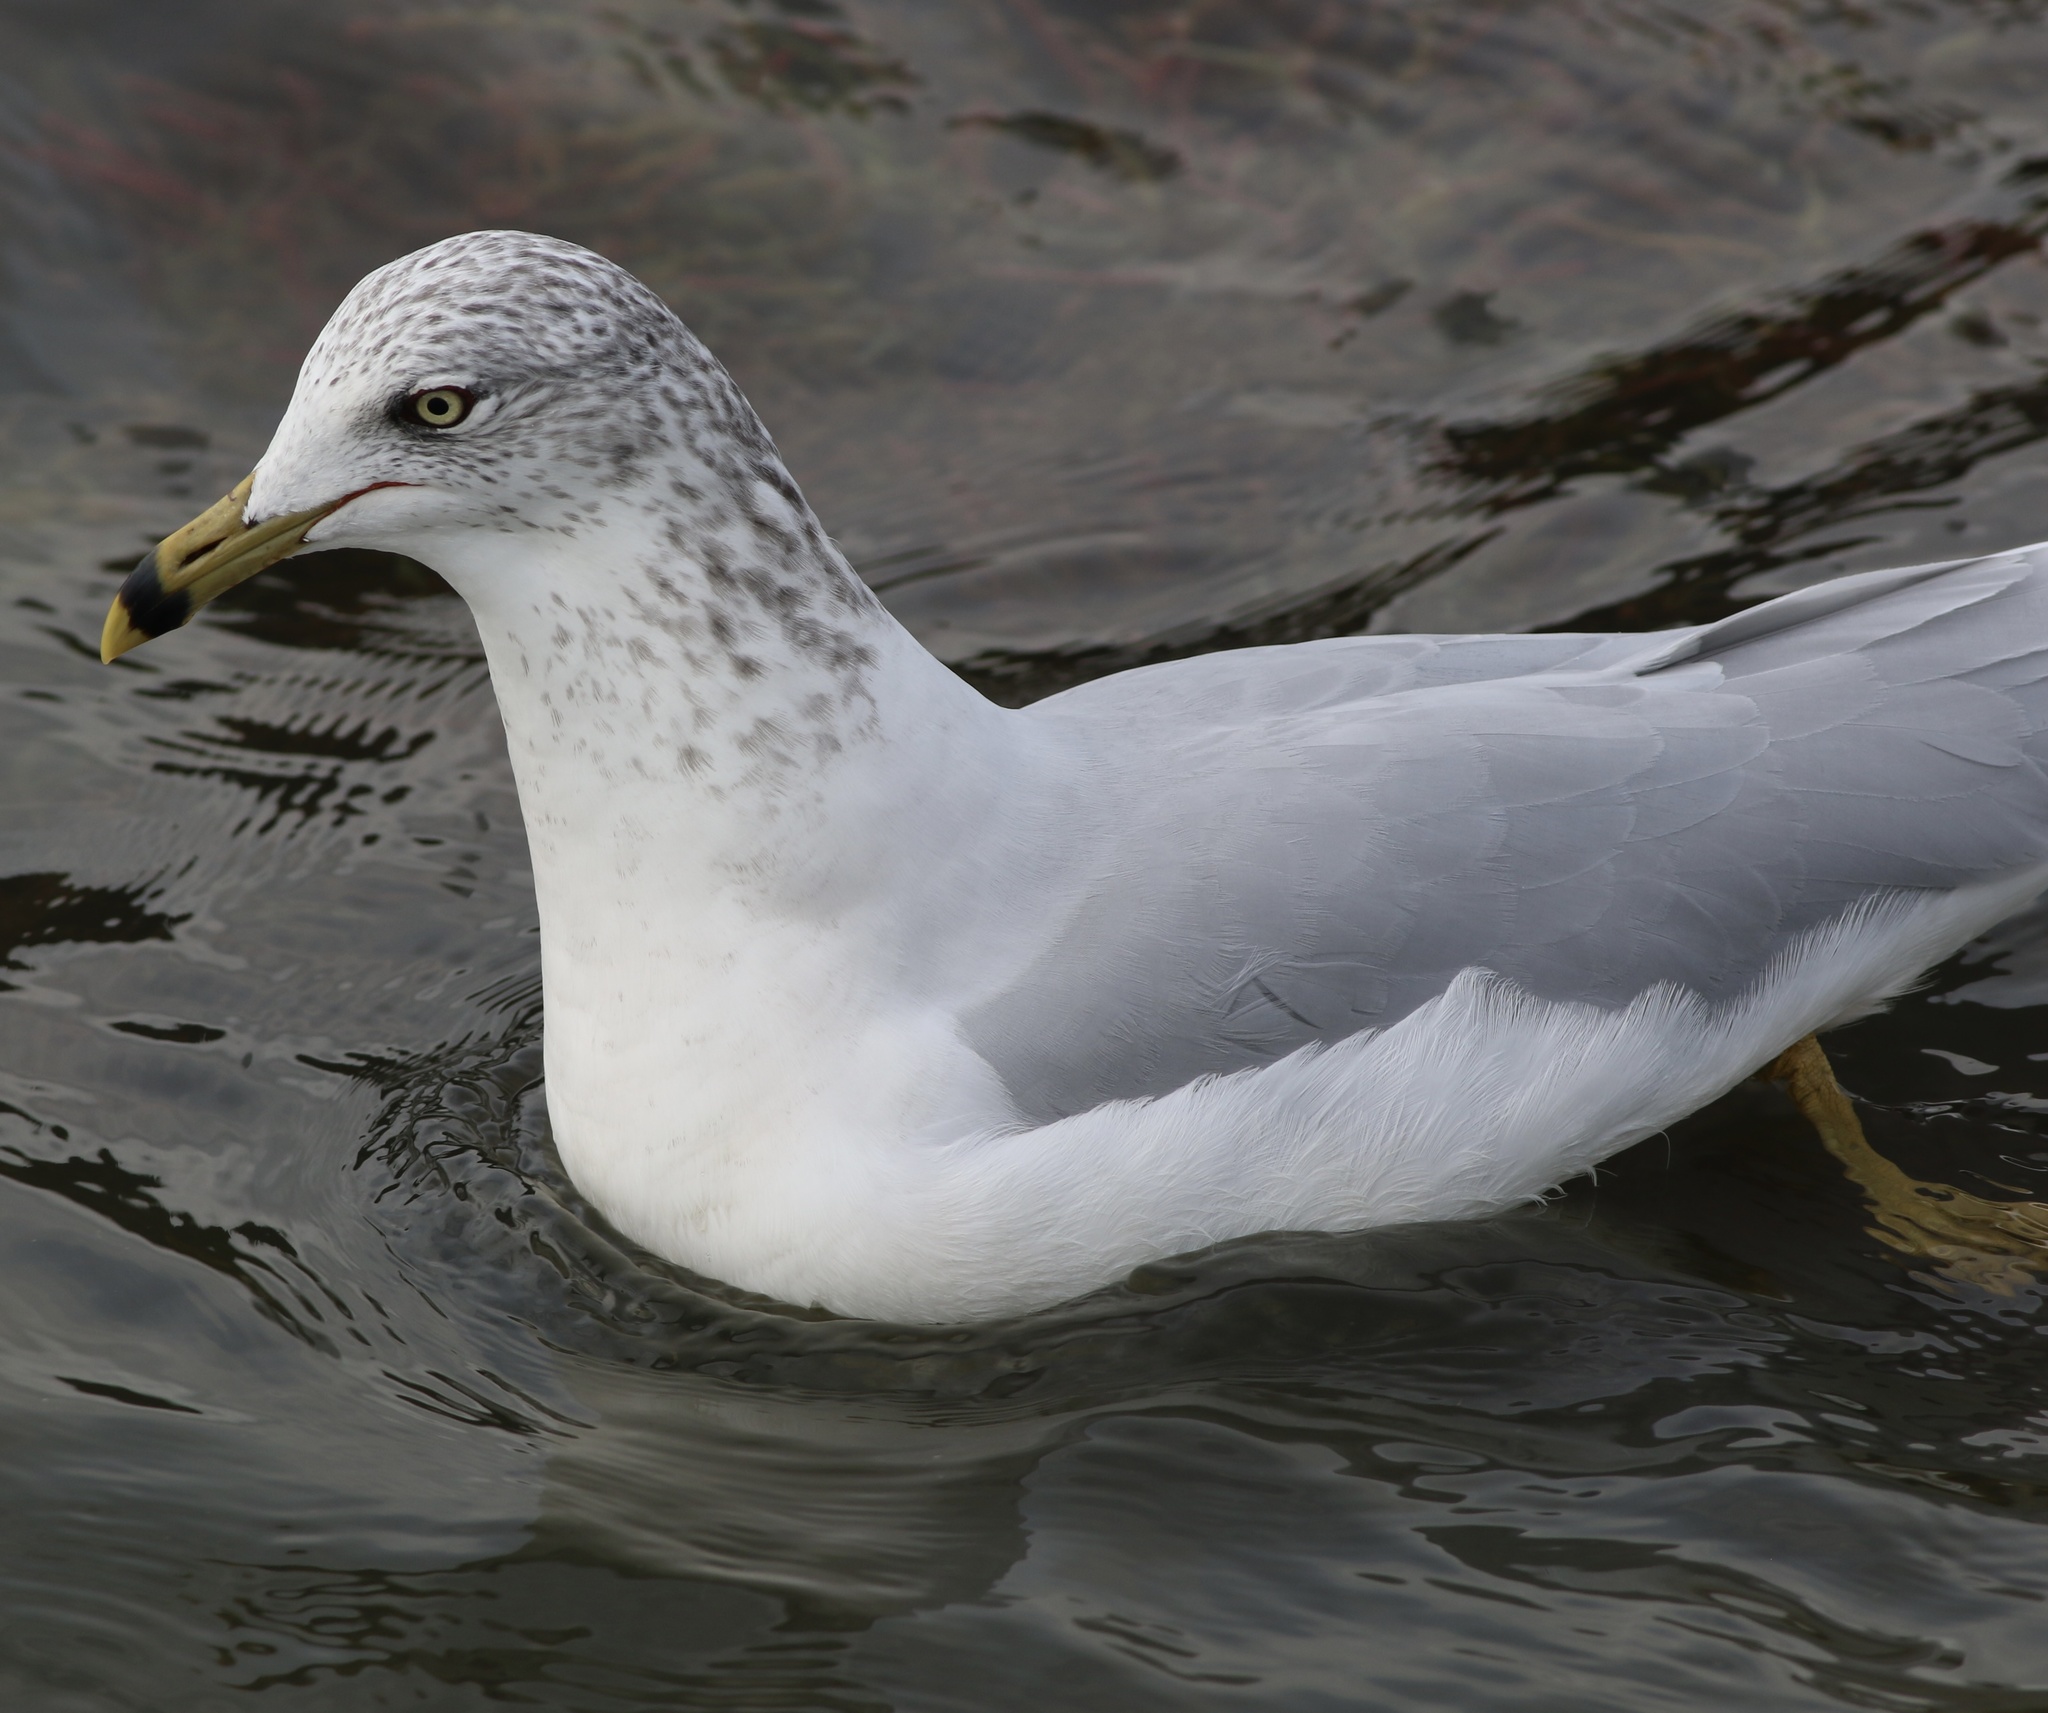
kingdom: Animalia
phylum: Chordata
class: Aves
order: Charadriiformes
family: Laridae
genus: Larus
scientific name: Larus delawarensis
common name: Ring-billed gull
